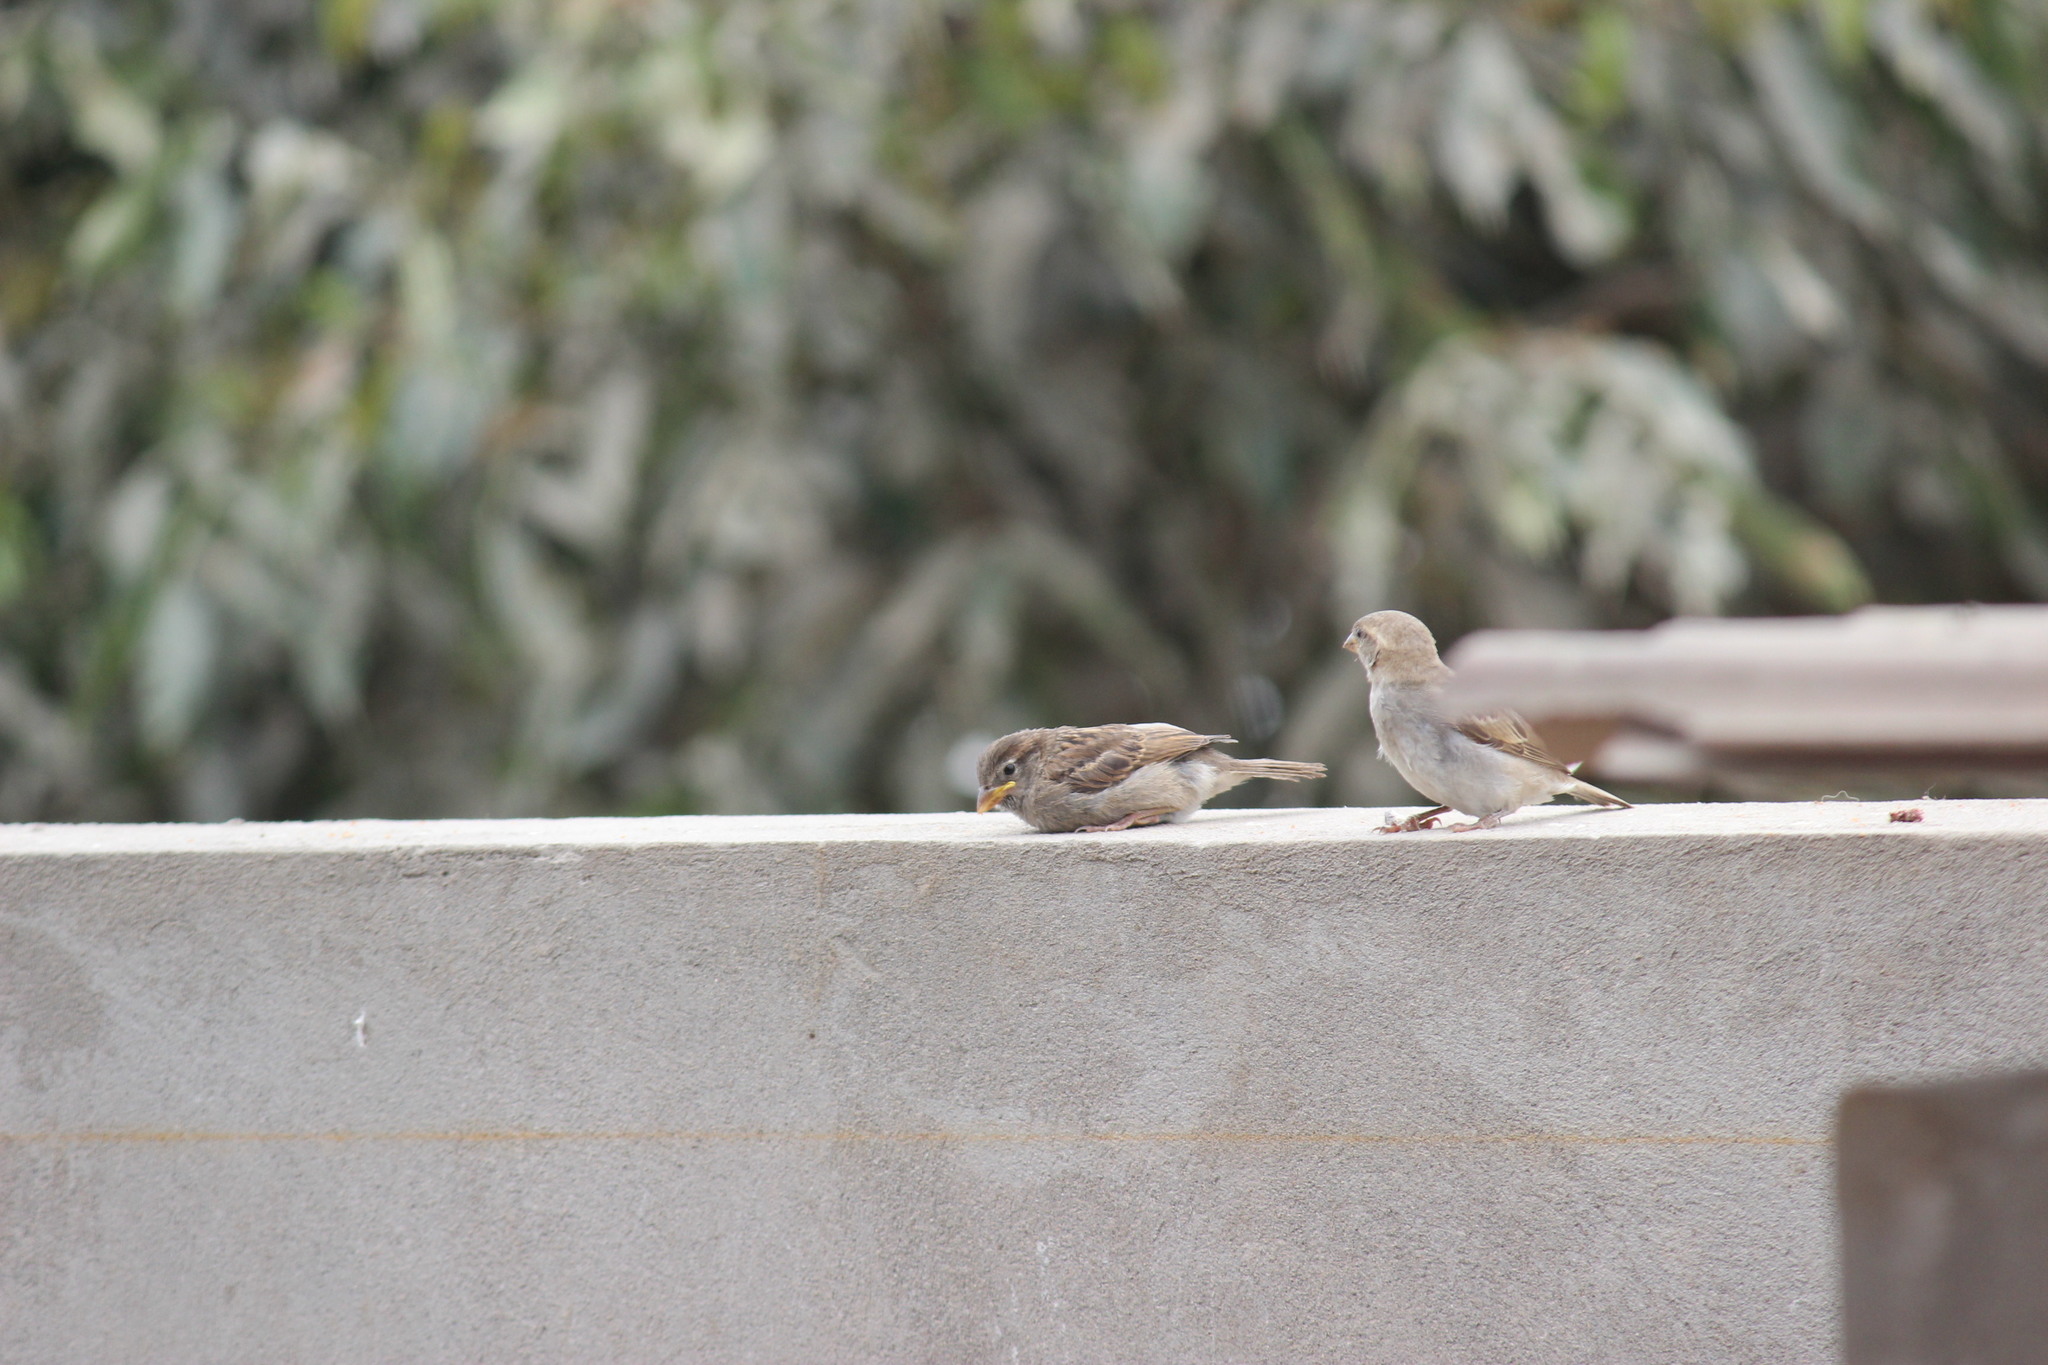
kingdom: Animalia
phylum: Chordata
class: Aves
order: Passeriformes
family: Passeridae
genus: Passer
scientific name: Passer domesticus
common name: House sparrow
